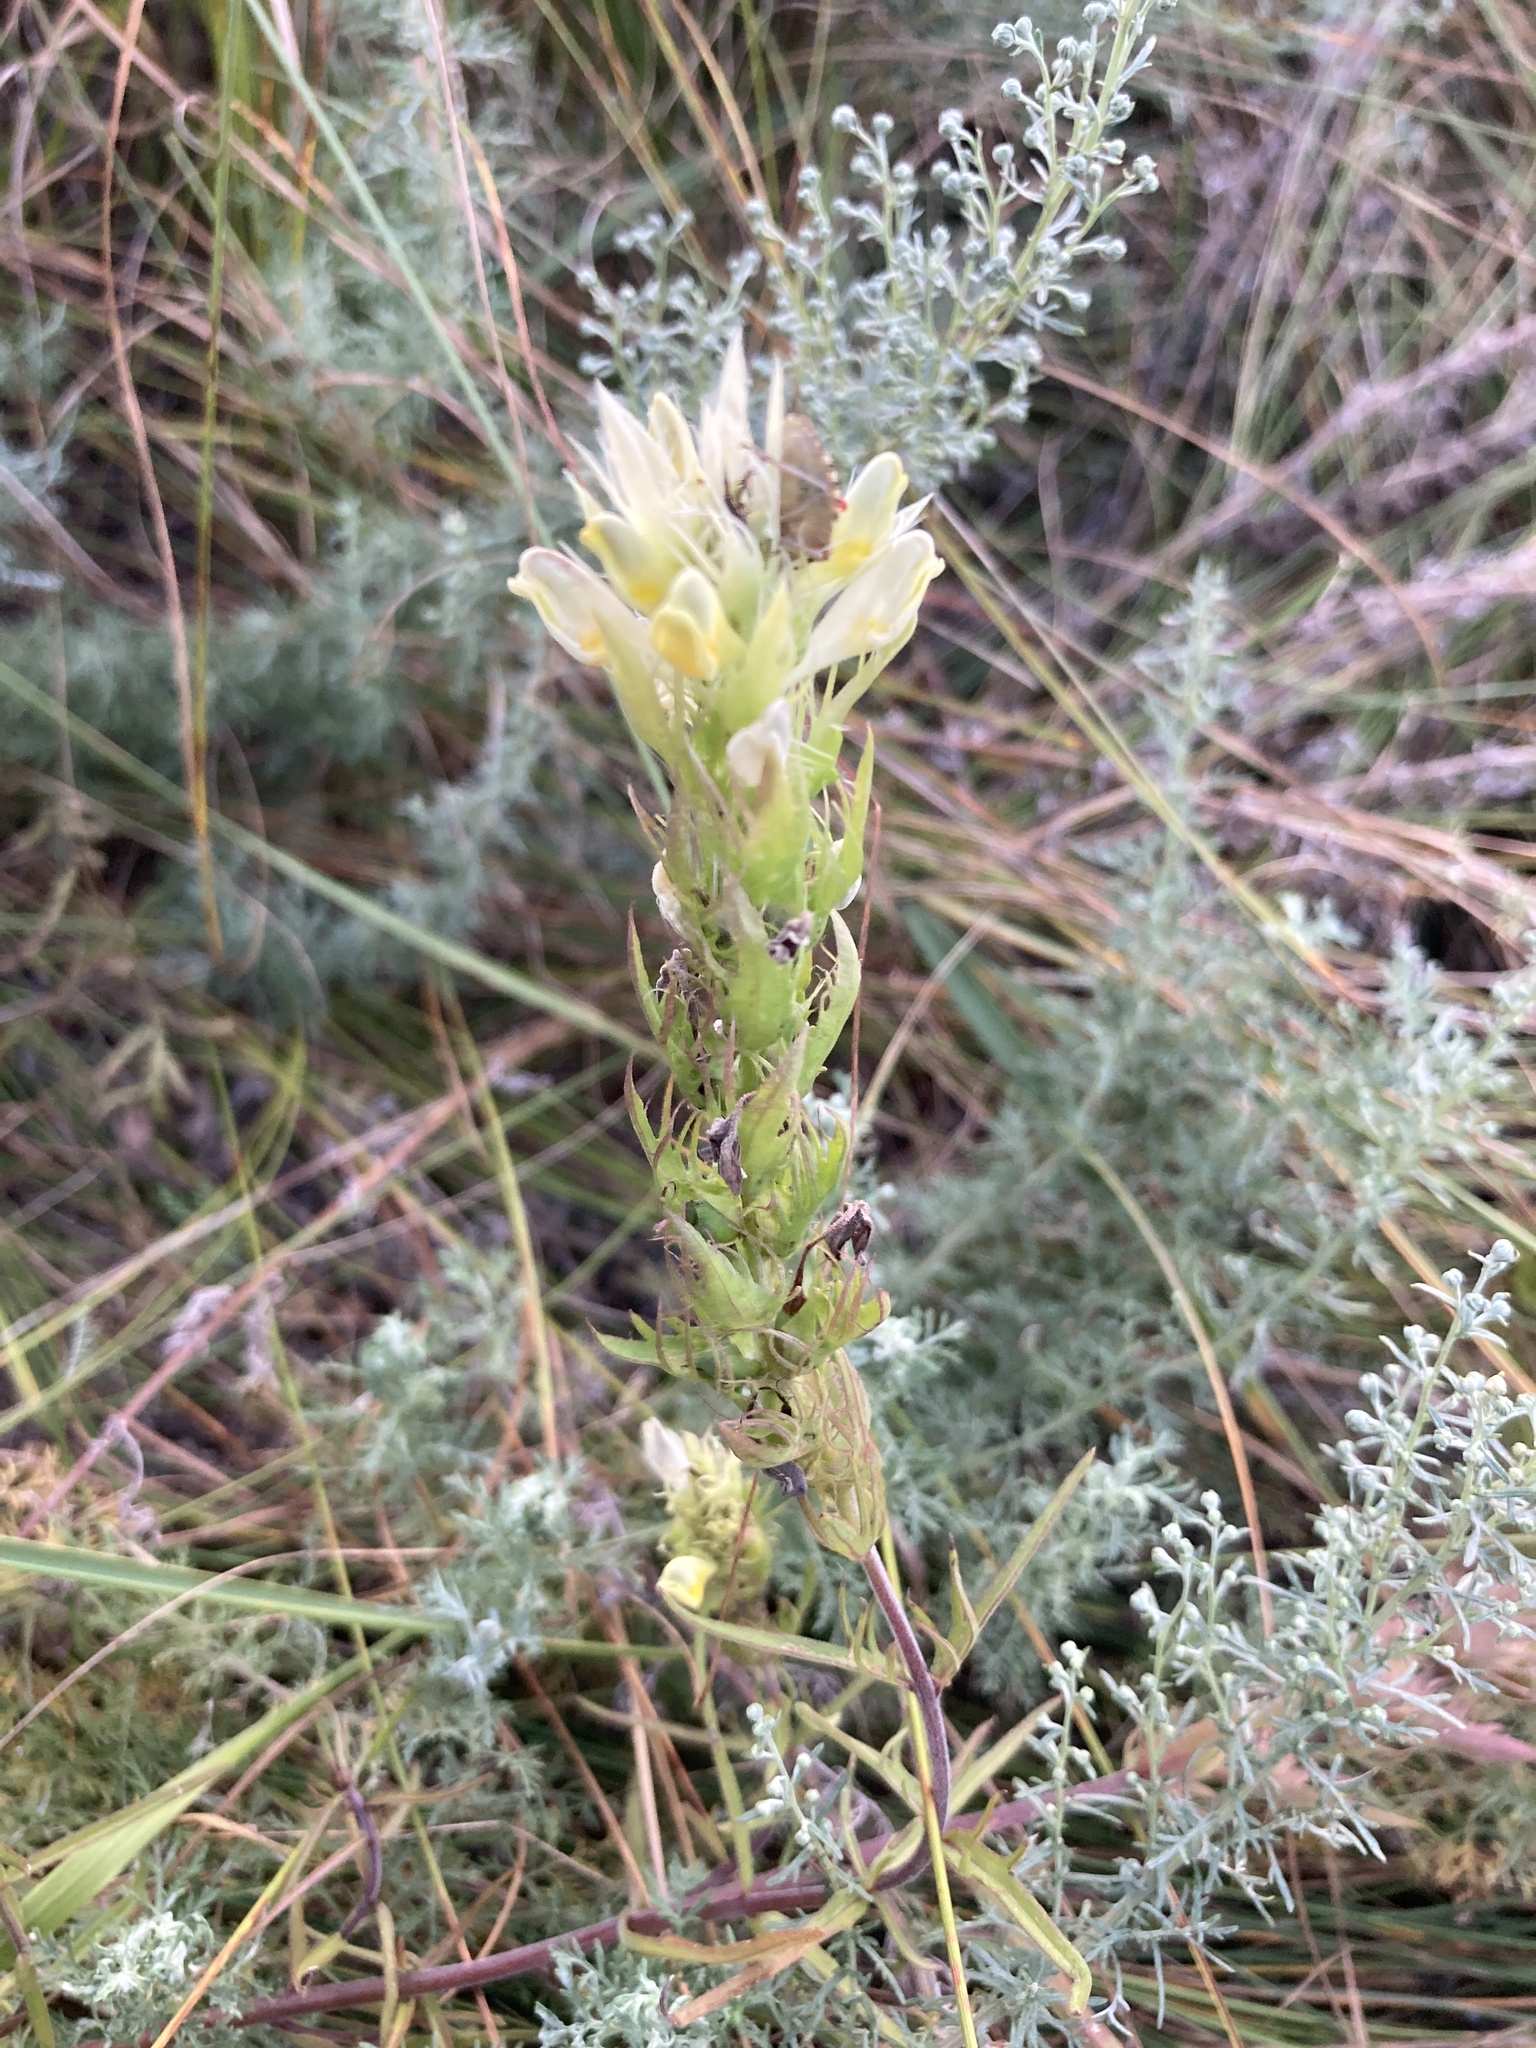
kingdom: Plantae
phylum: Tracheophyta
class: Magnoliopsida
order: Lamiales
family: Orobanchaceae
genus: Melampyrum
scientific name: Melampyrum arvense
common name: Field cow-wheat
